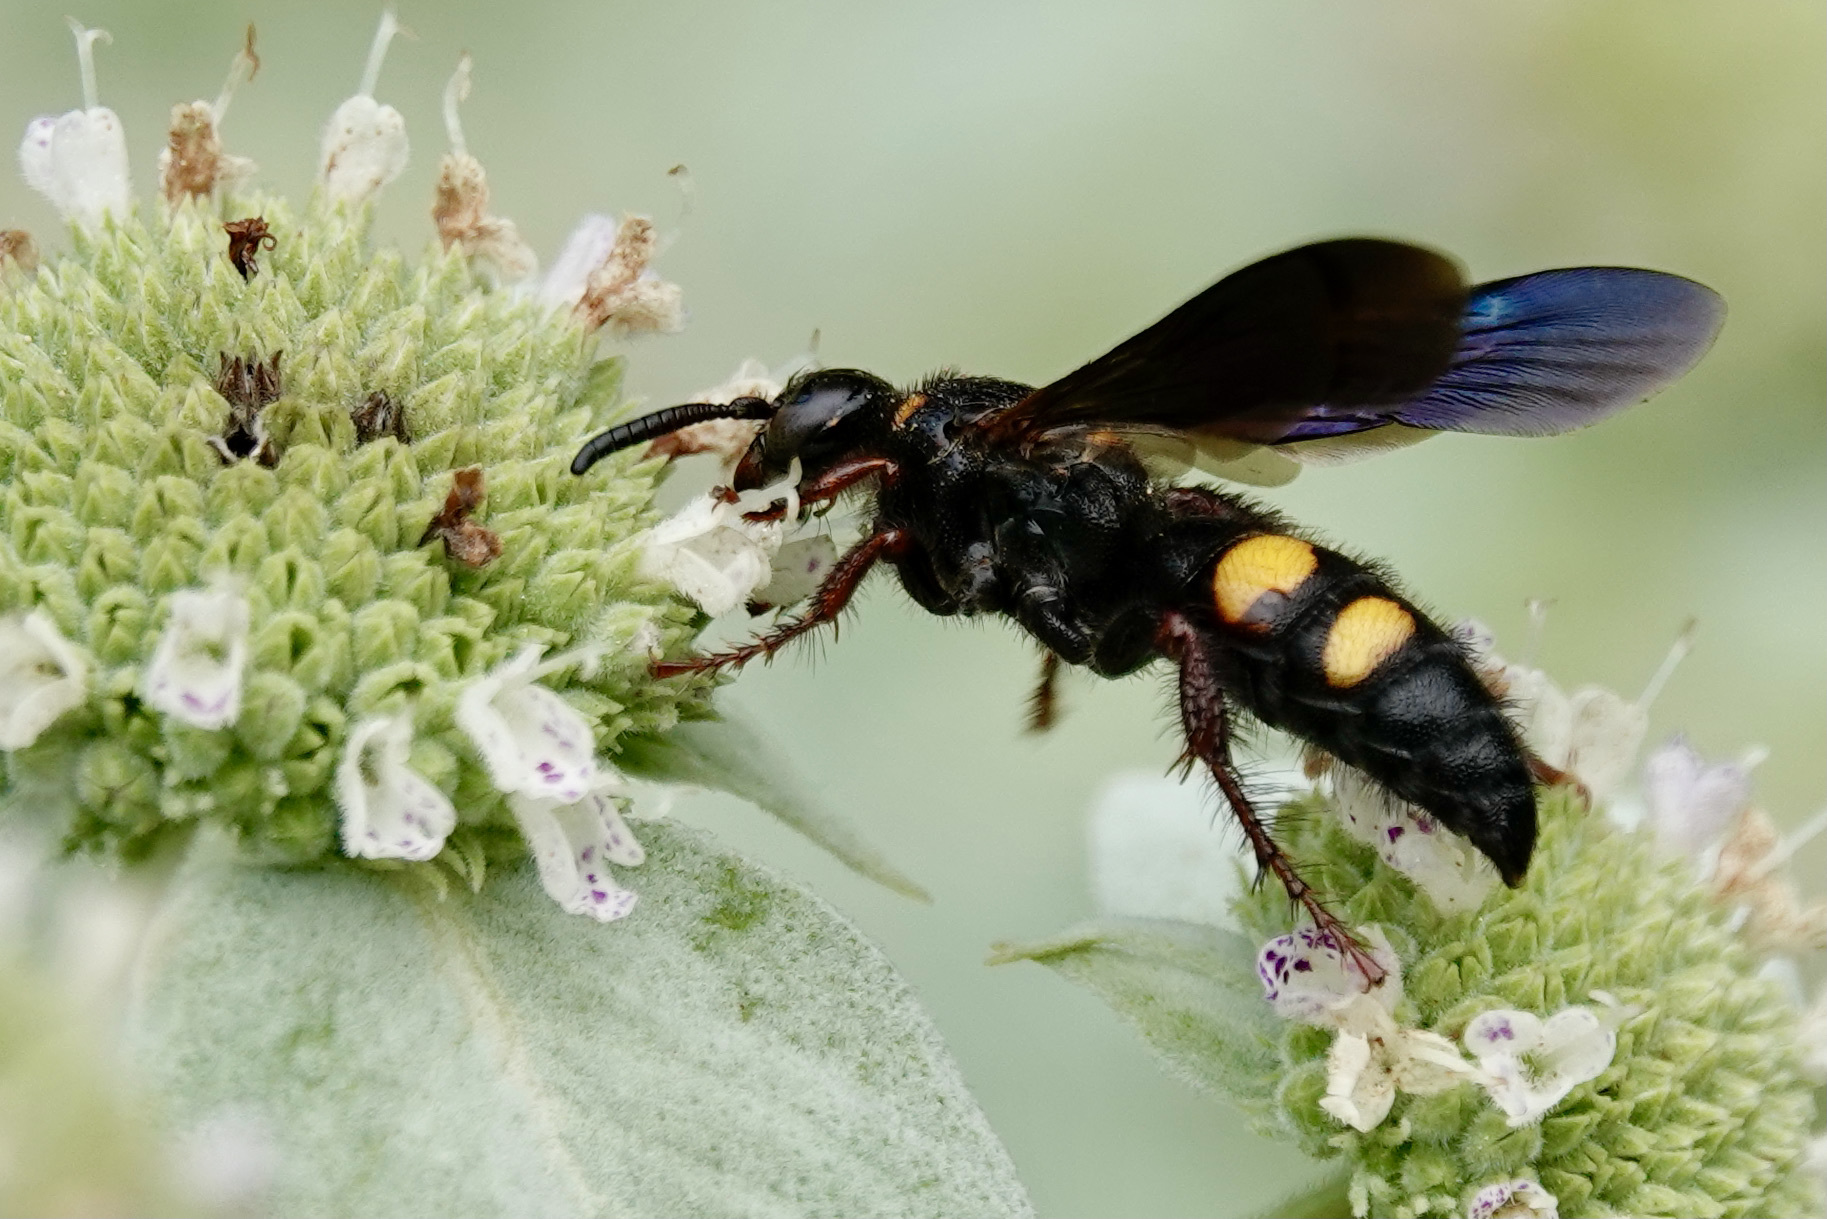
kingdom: Animalia
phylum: Arthropoda
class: Insecta
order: Hymenoptera
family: Scoliidae
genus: Scolia
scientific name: Scolia nobilitata
